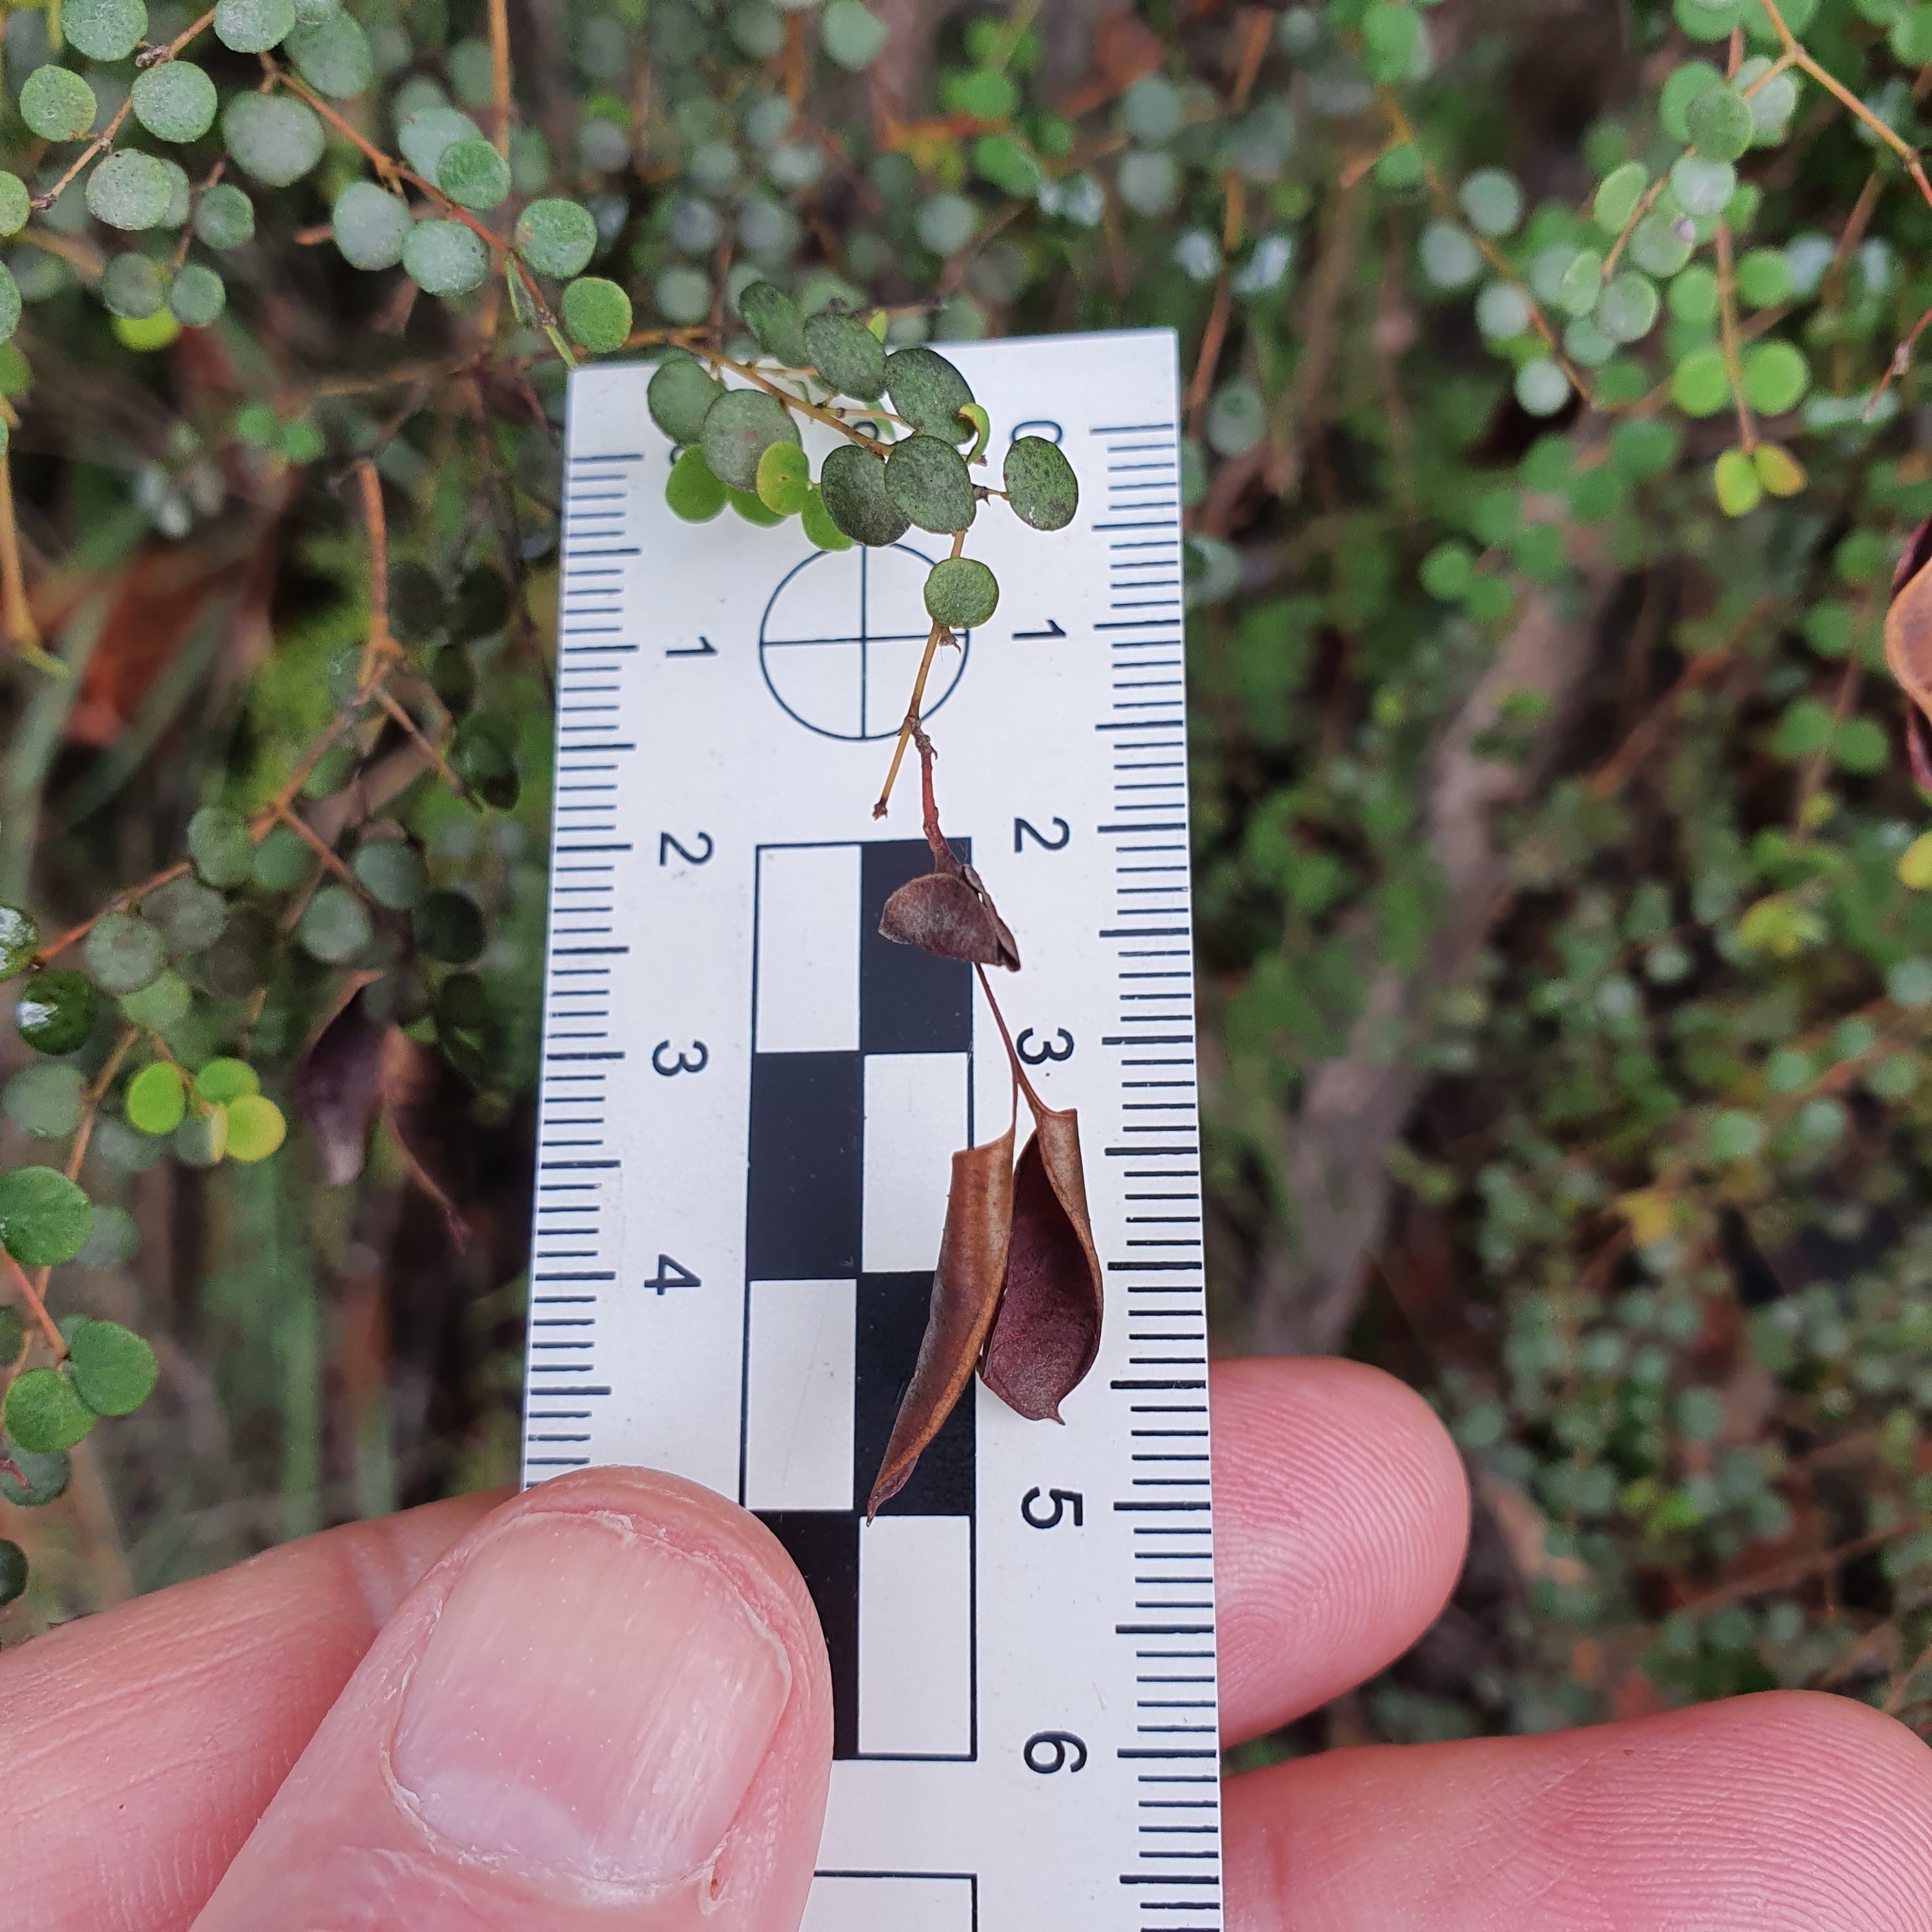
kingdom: Plantae
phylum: Tracheophyta
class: Magnoliopsida
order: Fabales
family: Fabaceae
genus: Bossiaea
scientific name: Bossiaea lenticularis
